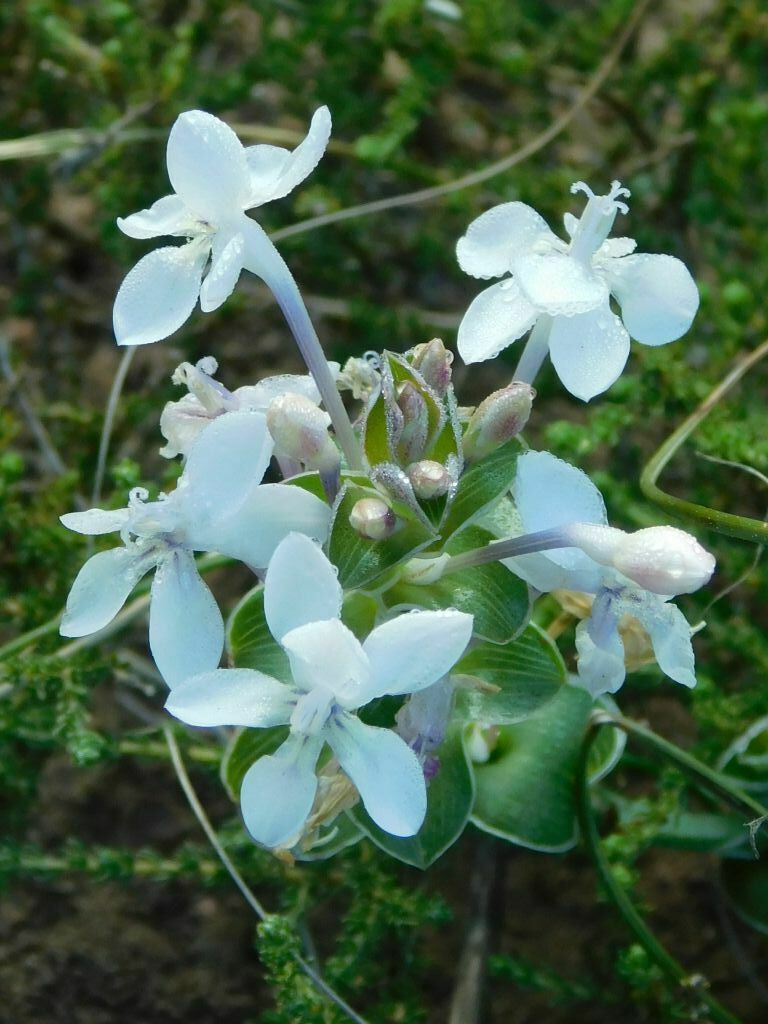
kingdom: Plantae
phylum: Tracheophyta
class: Liliopsida
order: Asparagales
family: Iridaceae
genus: Lapeirousia
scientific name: Lapeirousia pyramidalis
